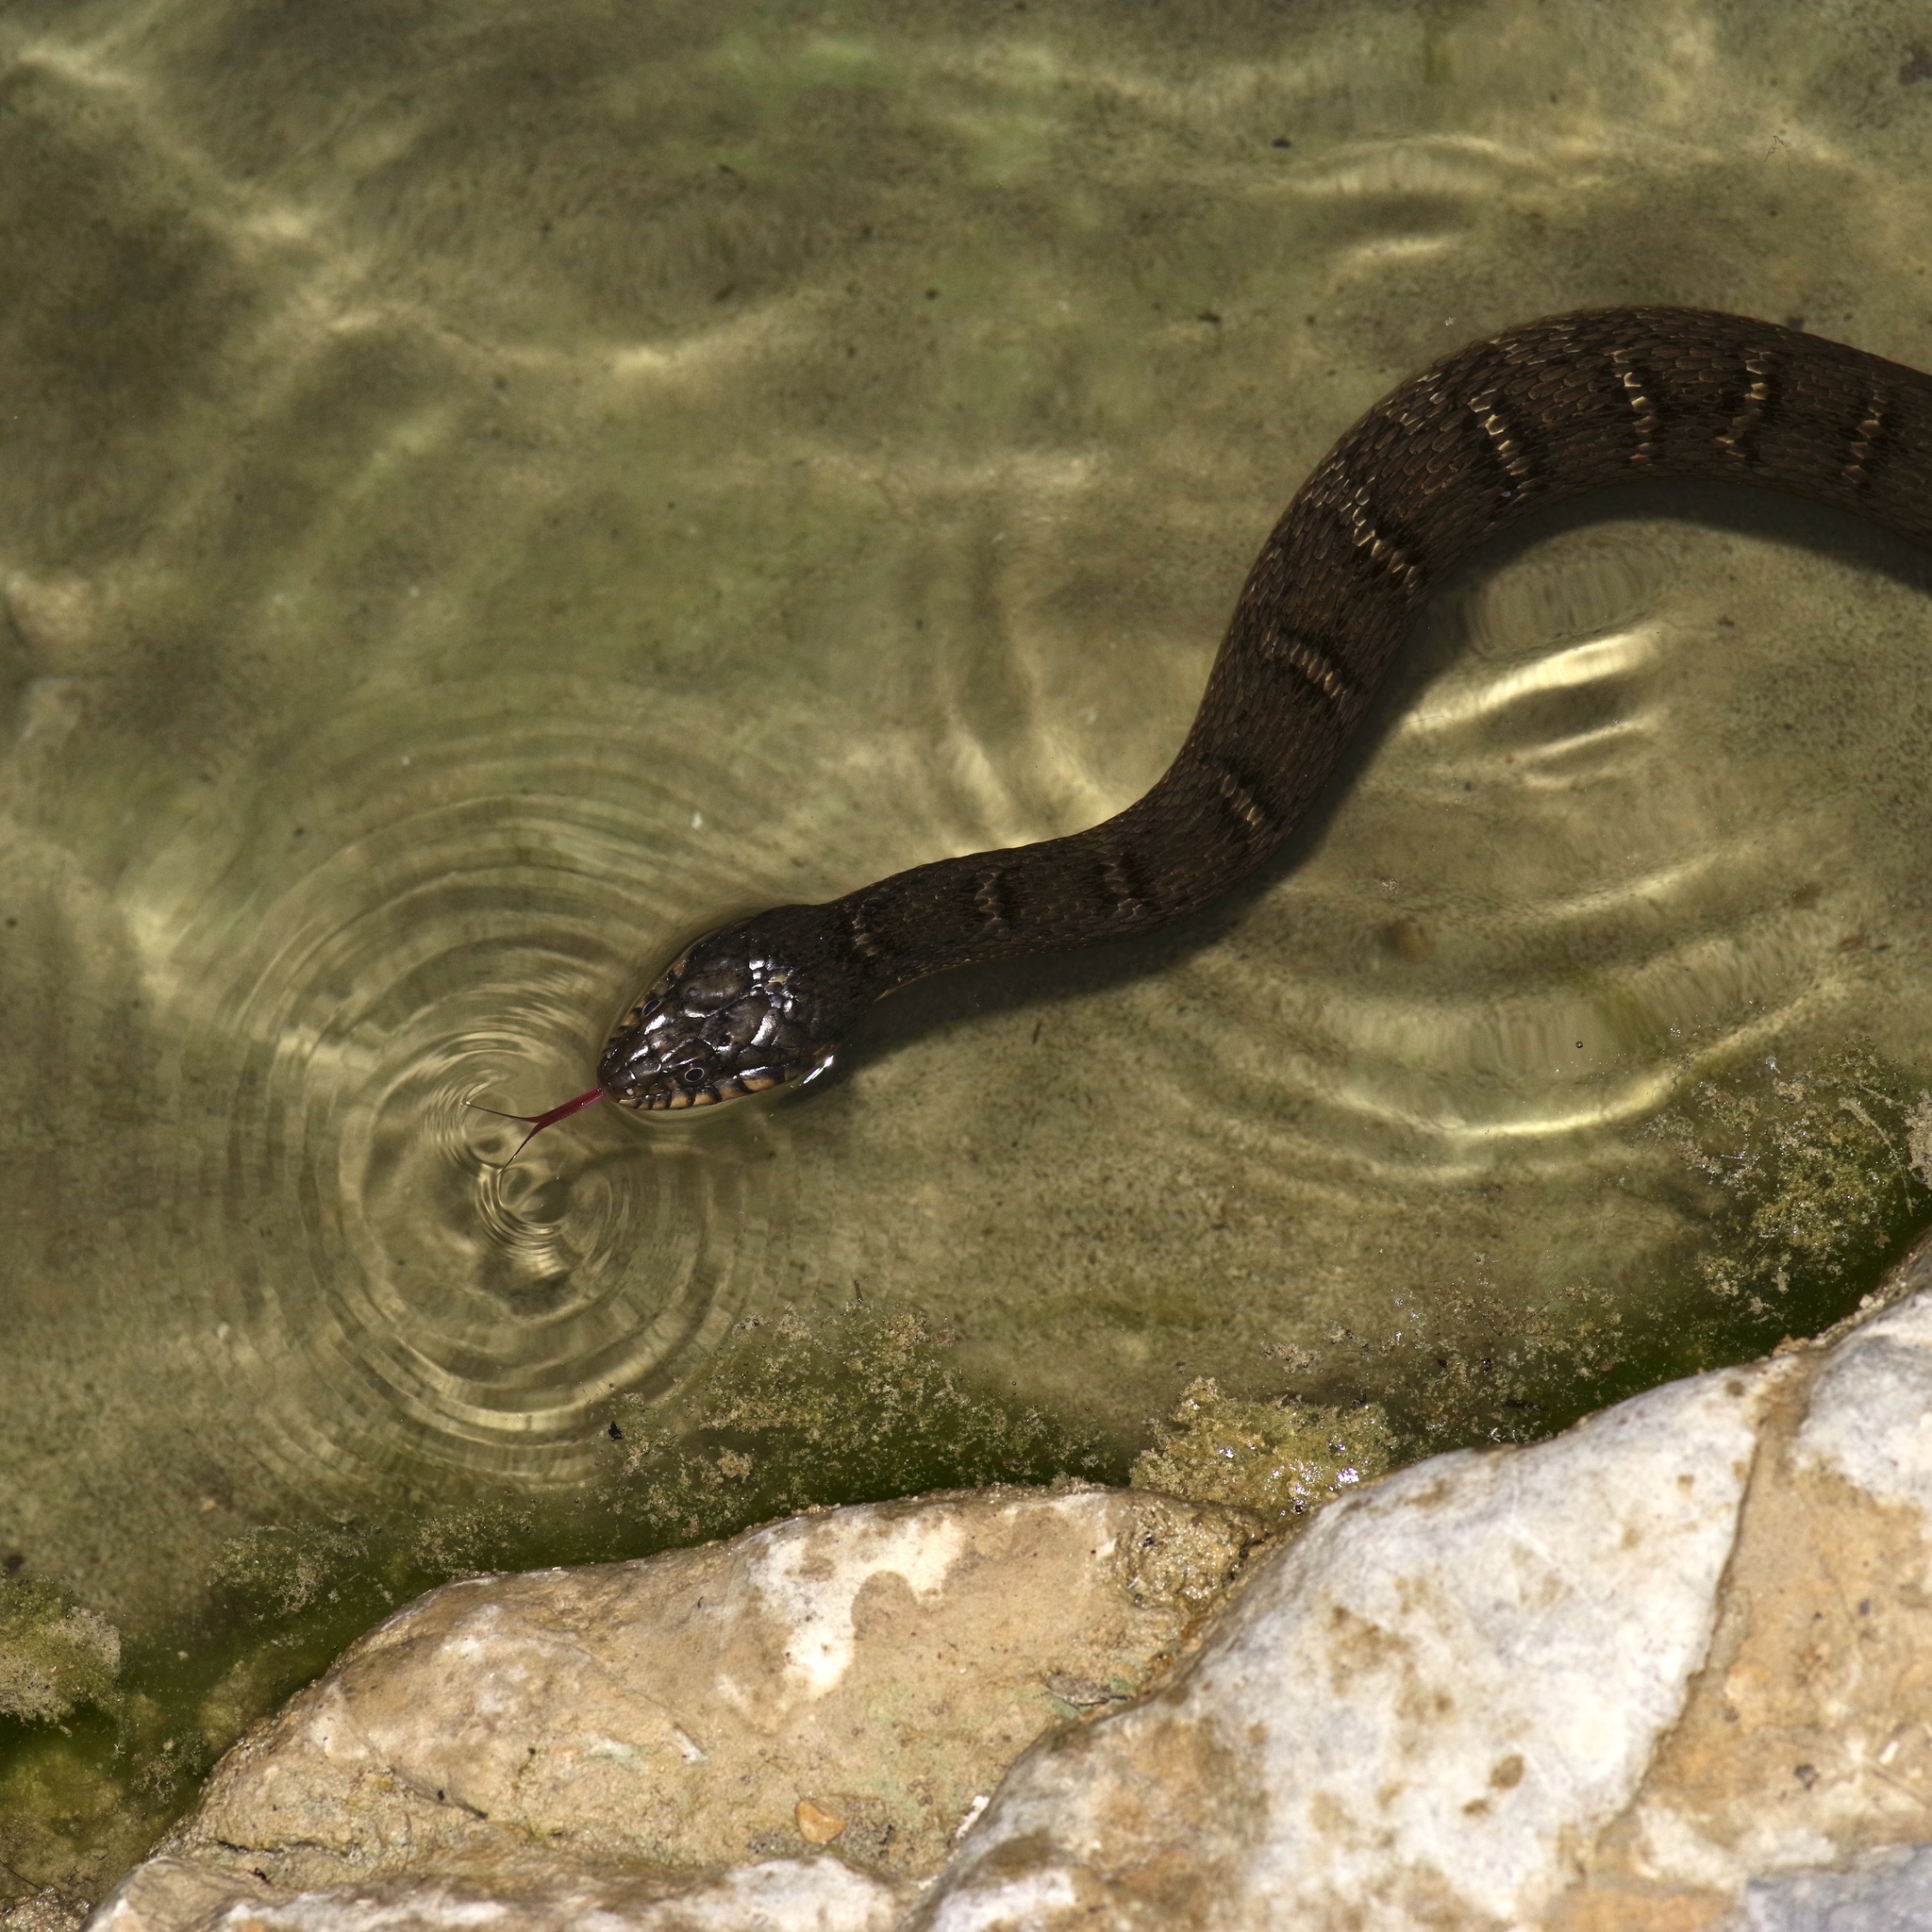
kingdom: Animalia
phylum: Chordata
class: Squamata
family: Colubridae
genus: Nerodia
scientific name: Nerodia erythrogaster
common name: Plainbelly water snake
